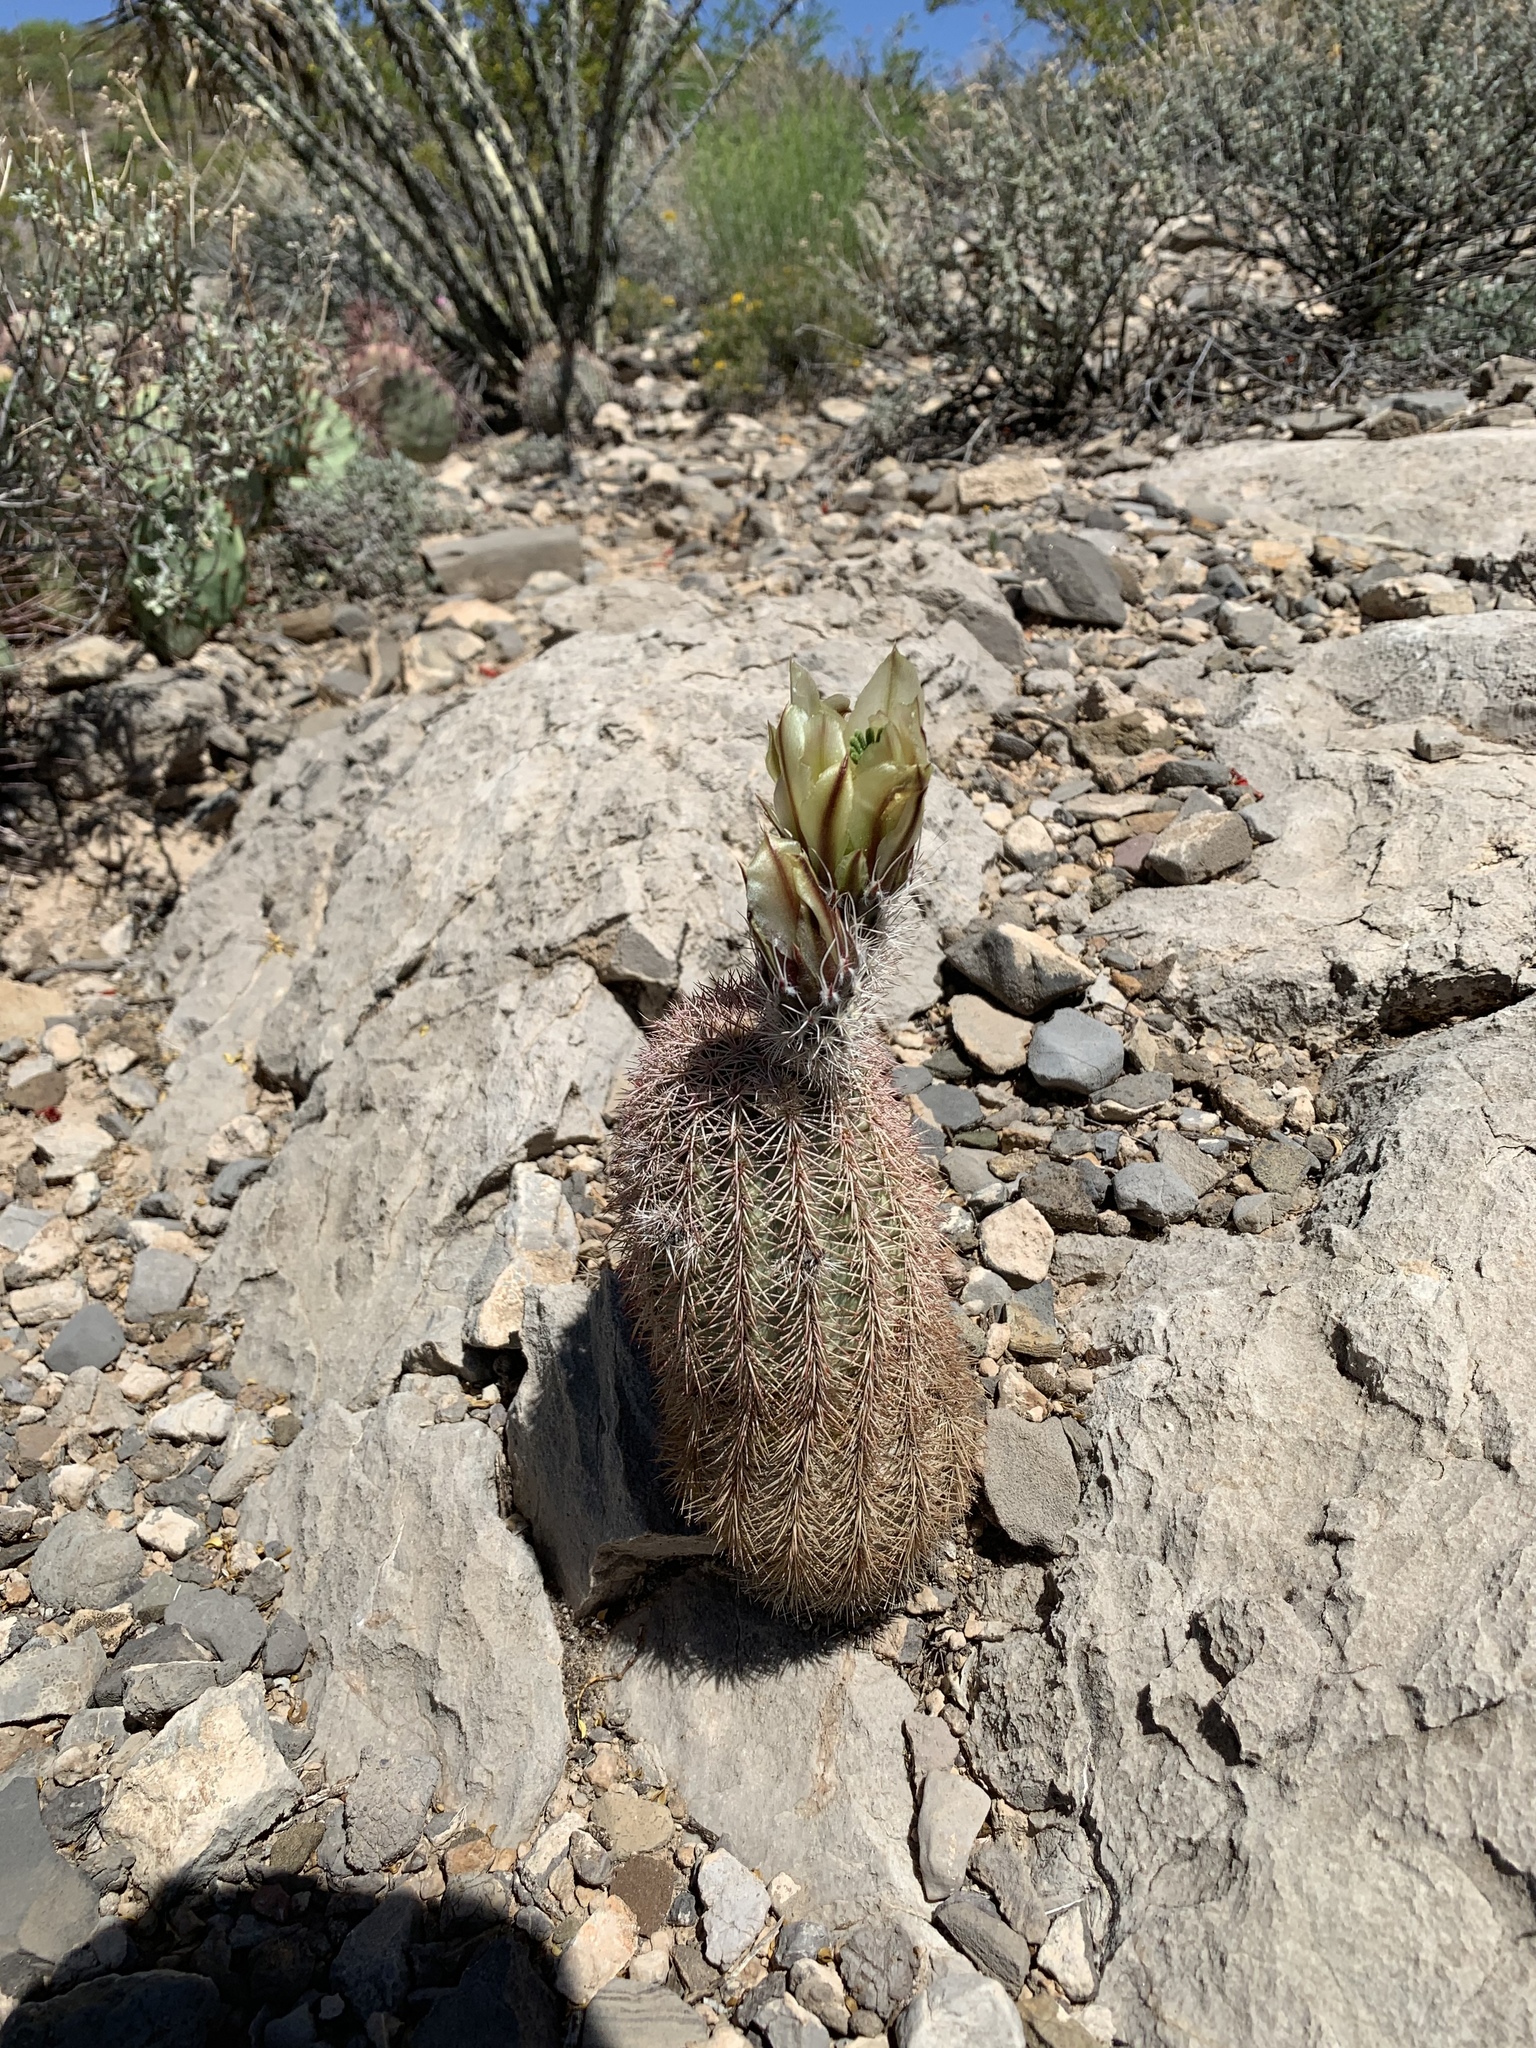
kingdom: Plantae
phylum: Tracheophyta
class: Magnoliopsida
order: Caryophyllales
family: Cactaceae
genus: Echinocereus
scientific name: Echinocereus dasyacanthus
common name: Spiny hedgehog cactus
